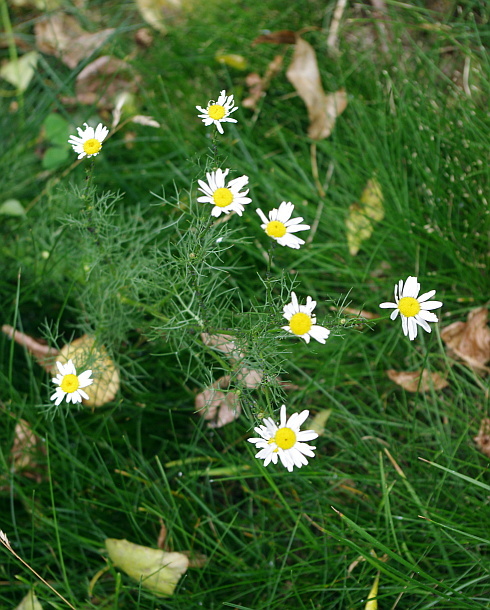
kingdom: Plantae
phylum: Tracheophyta
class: Magnoliopsida
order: Asterales
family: Asteraceae
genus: Tripleurospermum
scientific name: Tripleurospermum inodorum
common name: Scentless mayweed
